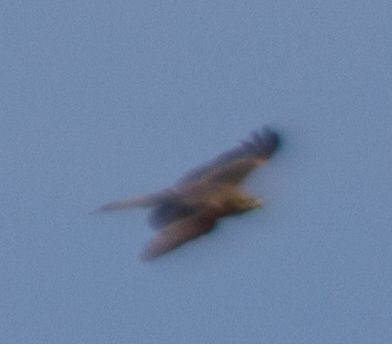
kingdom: Animalia
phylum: Chordata
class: Aves
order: Accipitriformes
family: Accipitridae
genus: Milvus
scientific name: Milvus migrans
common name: Black kite
